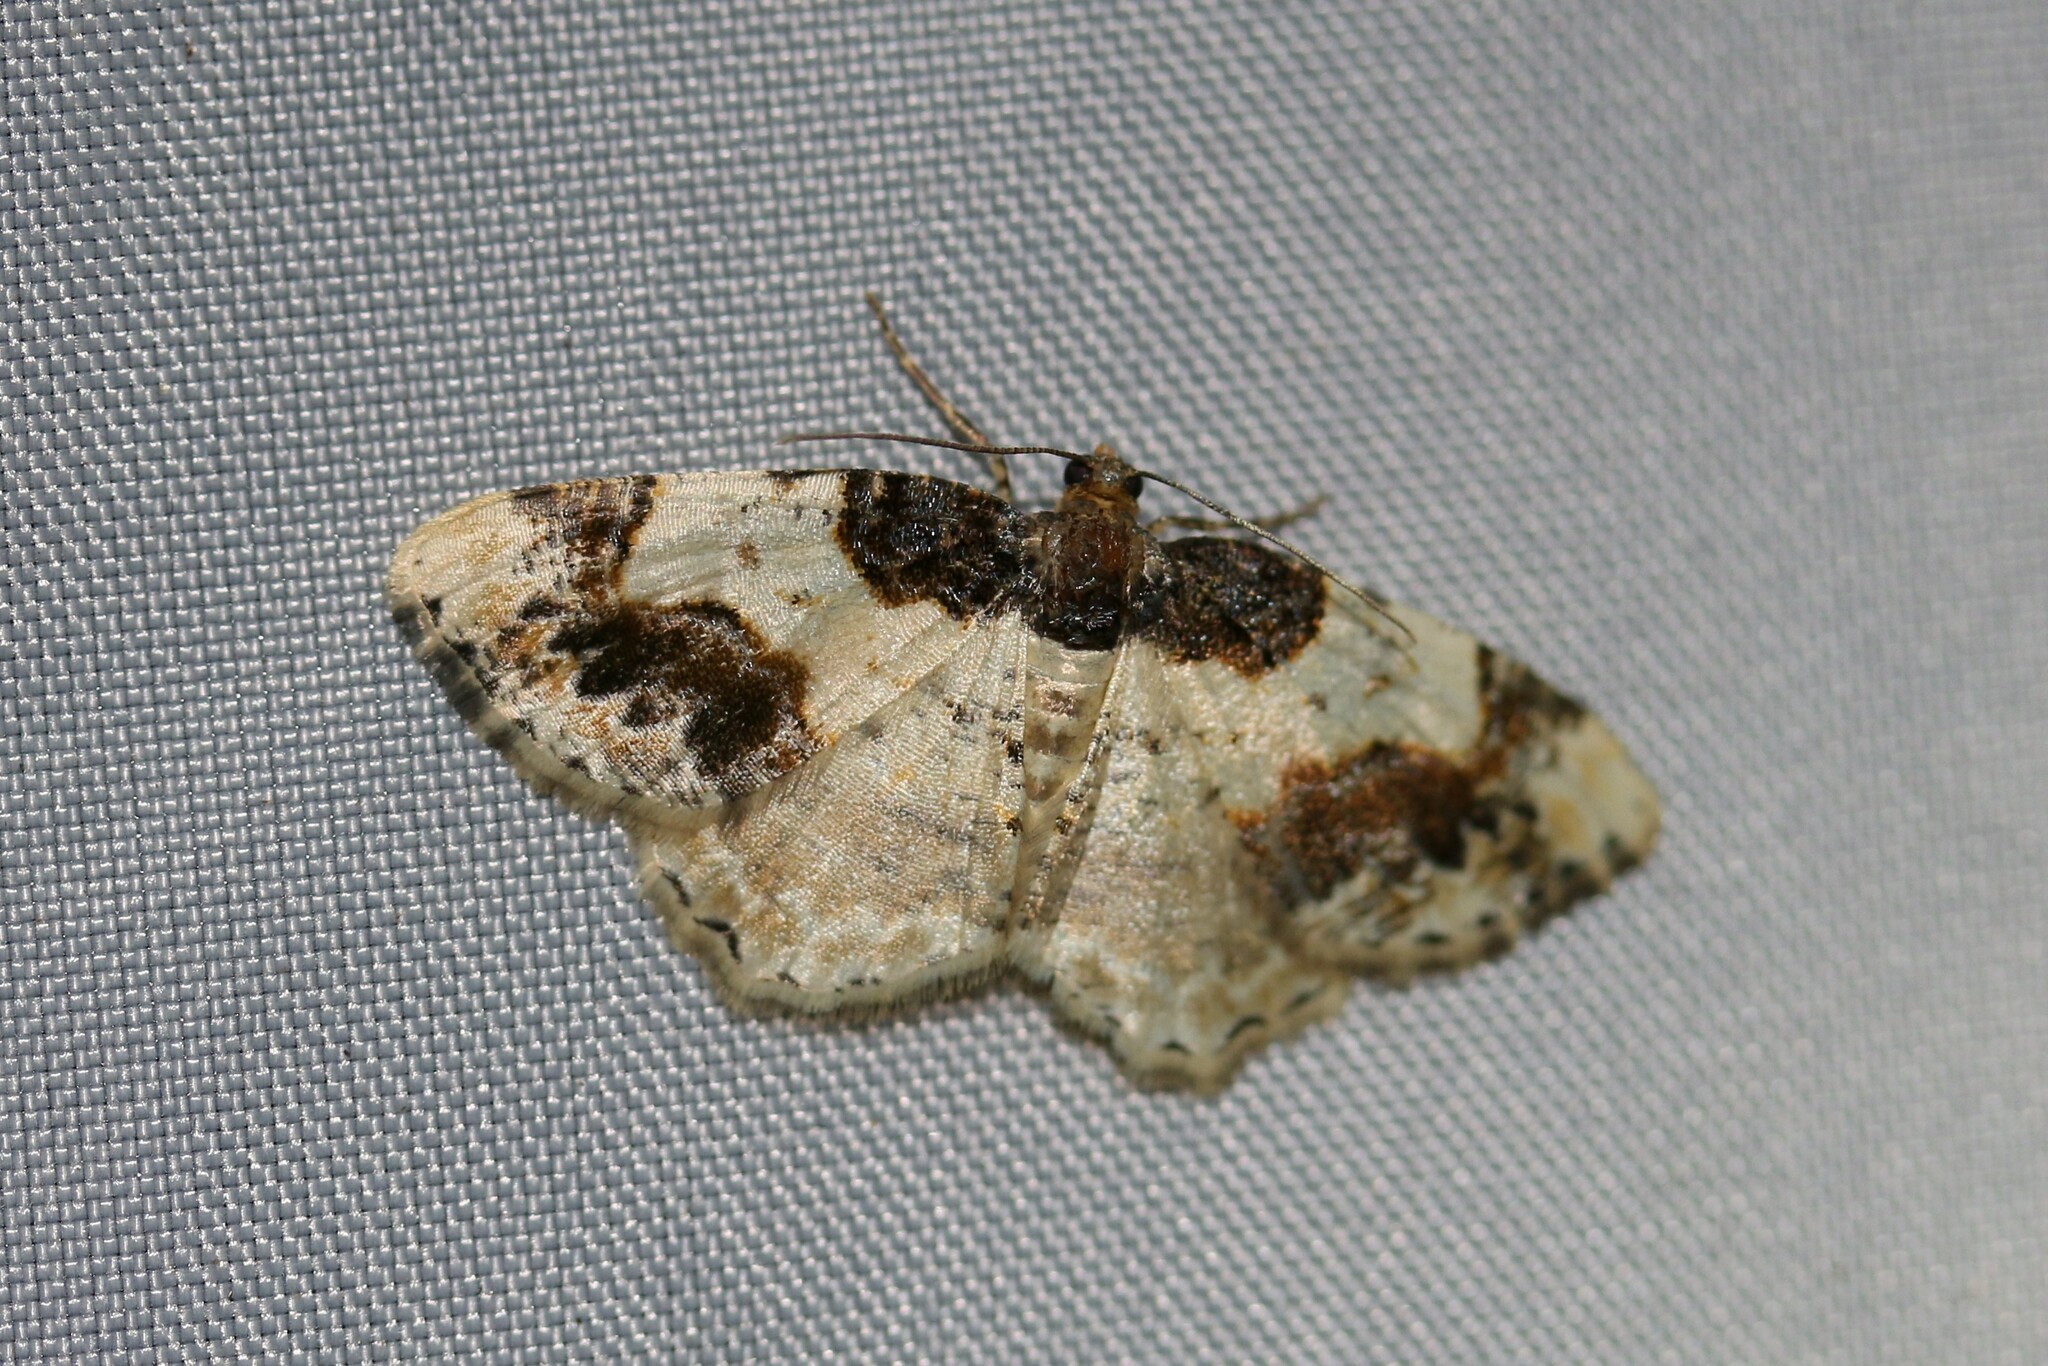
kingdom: Animalia
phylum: Arthropoda
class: Insecta
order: Lepidoptera
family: Geometridae
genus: Ligdia
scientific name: Ligdia adustata
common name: Scorched carpet
